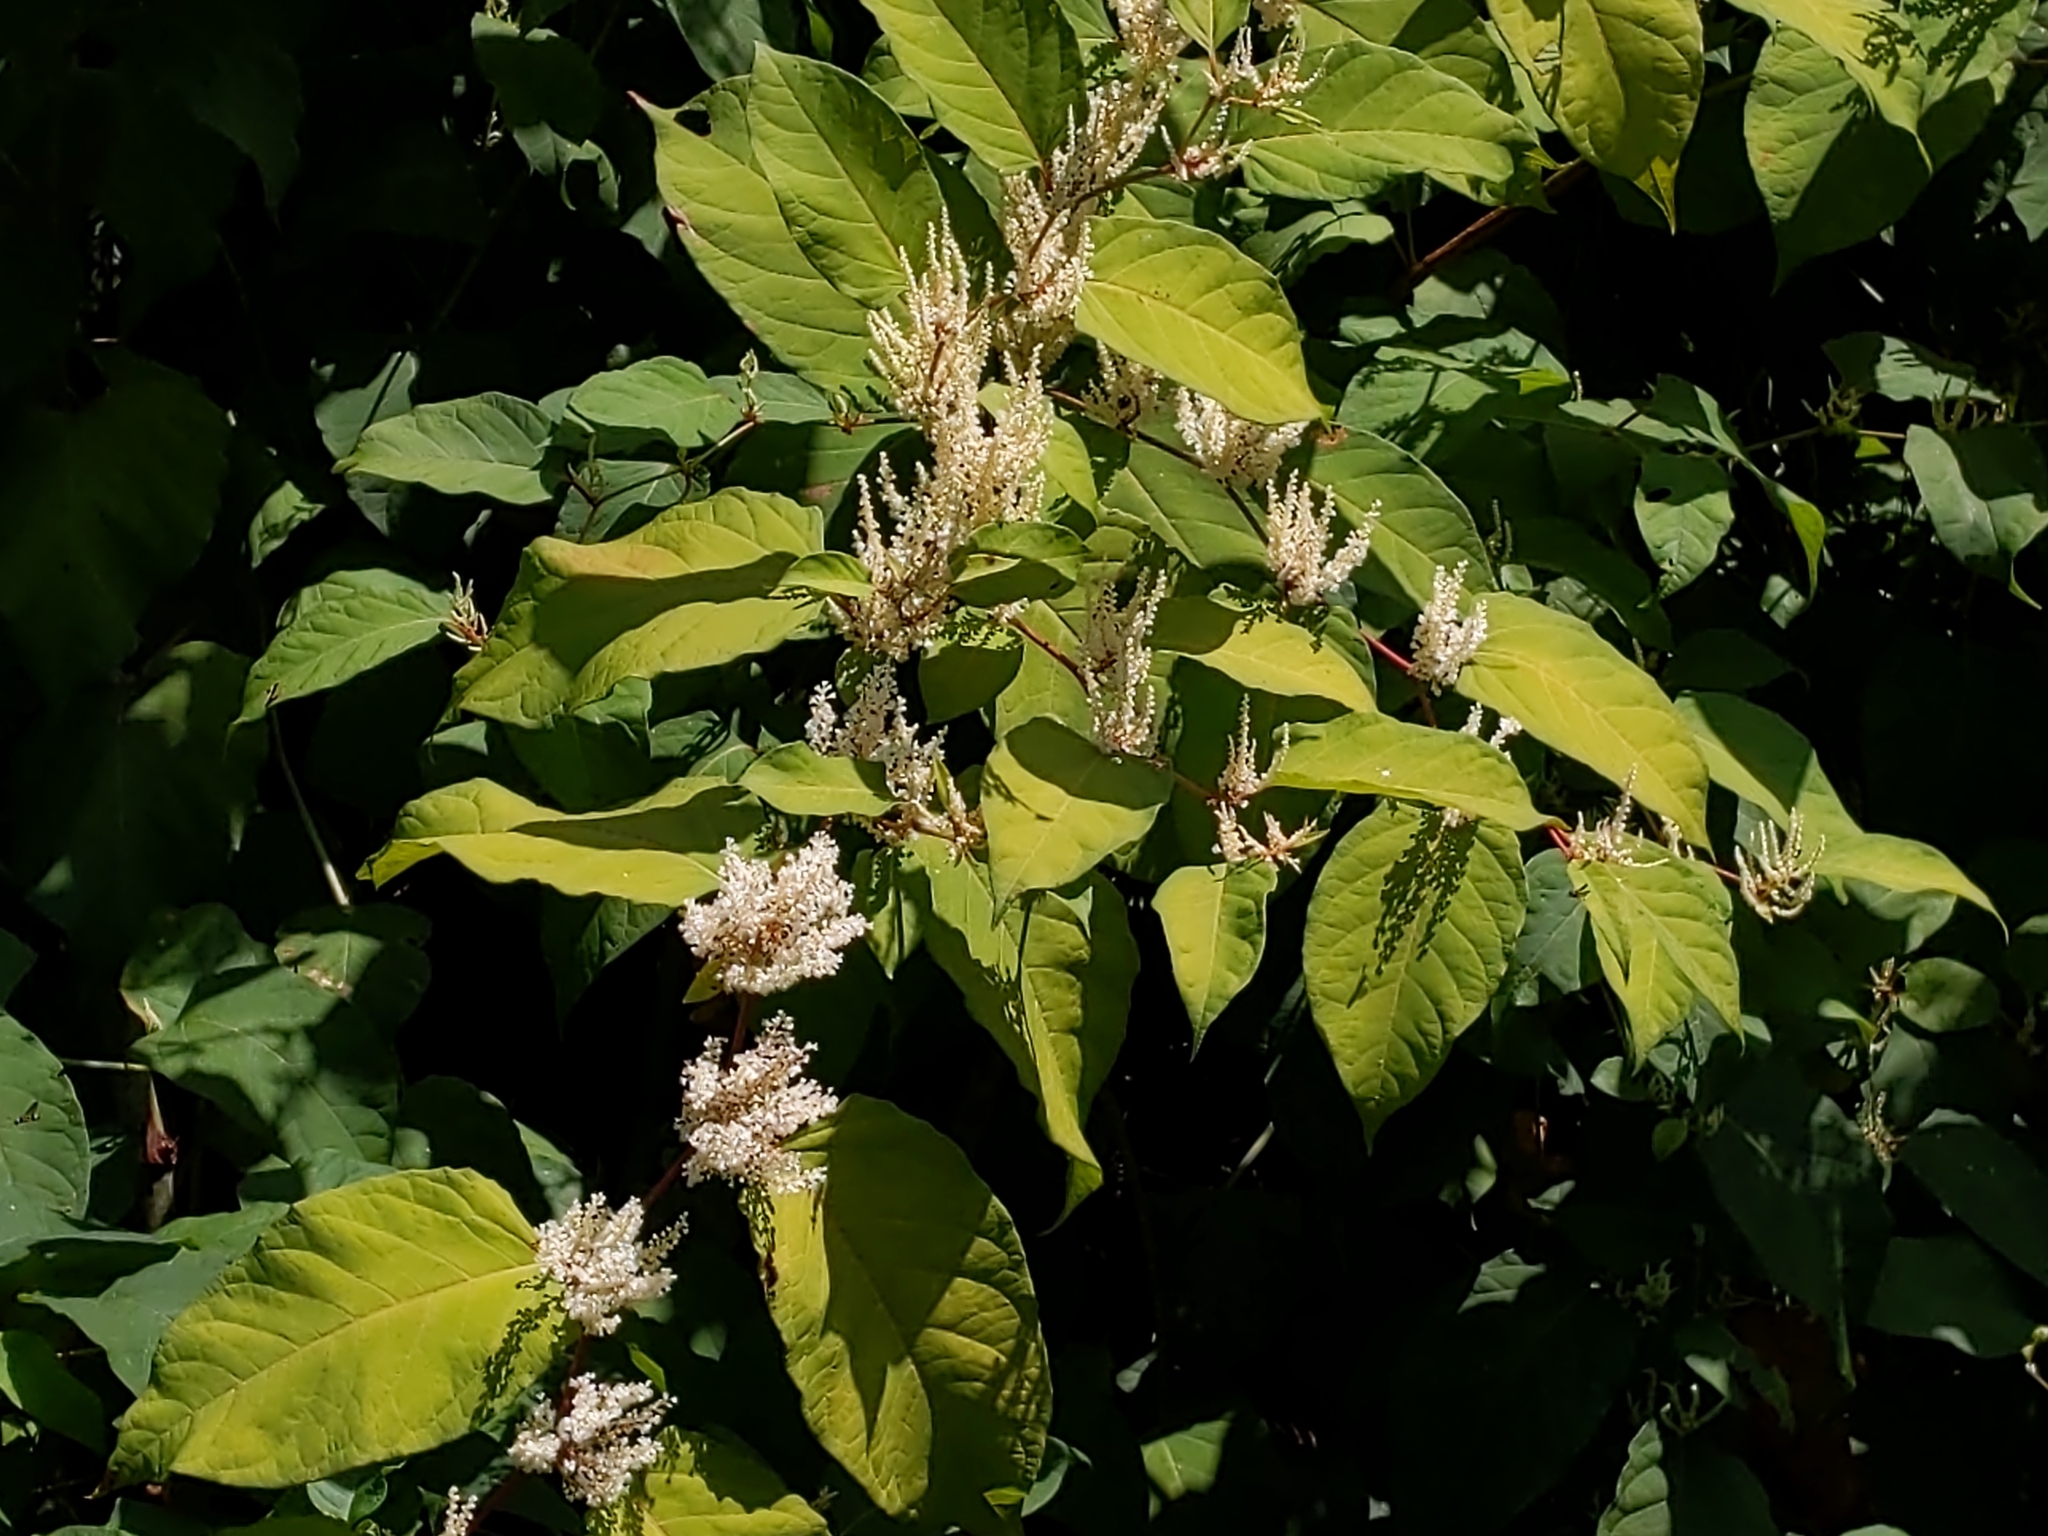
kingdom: Plantae
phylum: Tracheophyta
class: Magnoliopsida
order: Caryophyllales
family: Polygonaceae
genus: Reynoutria
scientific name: Reynoutria japonica
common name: Japanese knotweed
